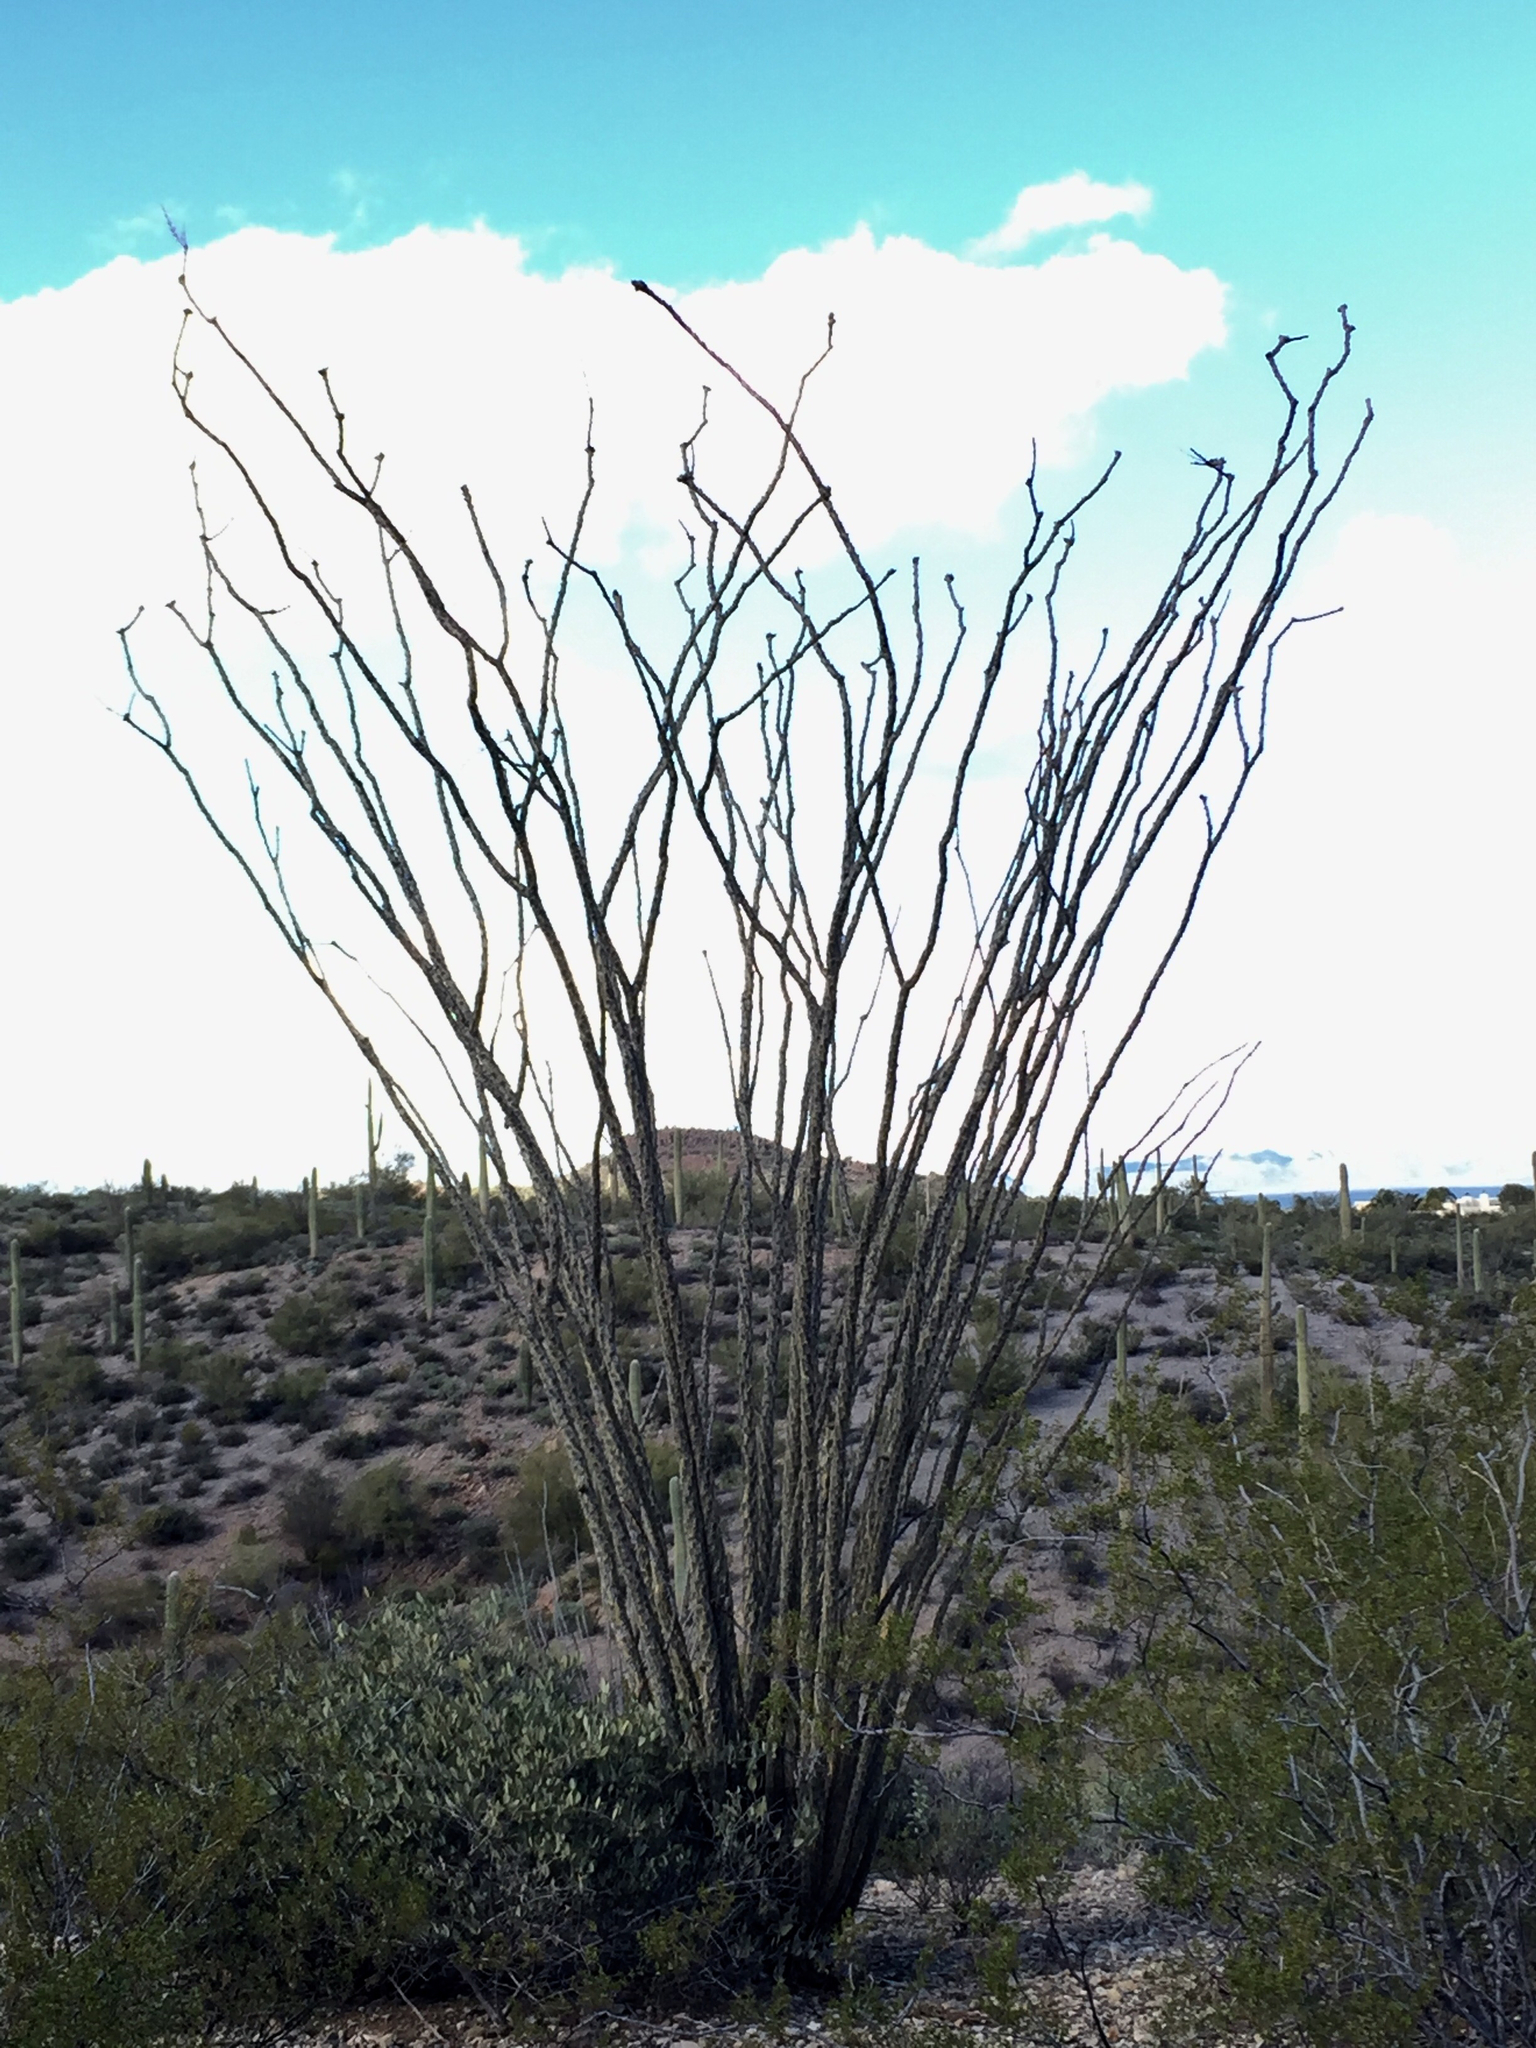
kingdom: Plantae
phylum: Tracheophyta
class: Magnoliopsida
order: Ericales
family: Fouquieriaceae
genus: Fouquieria
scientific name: Fouquieria splendens
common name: Vine-cactus
